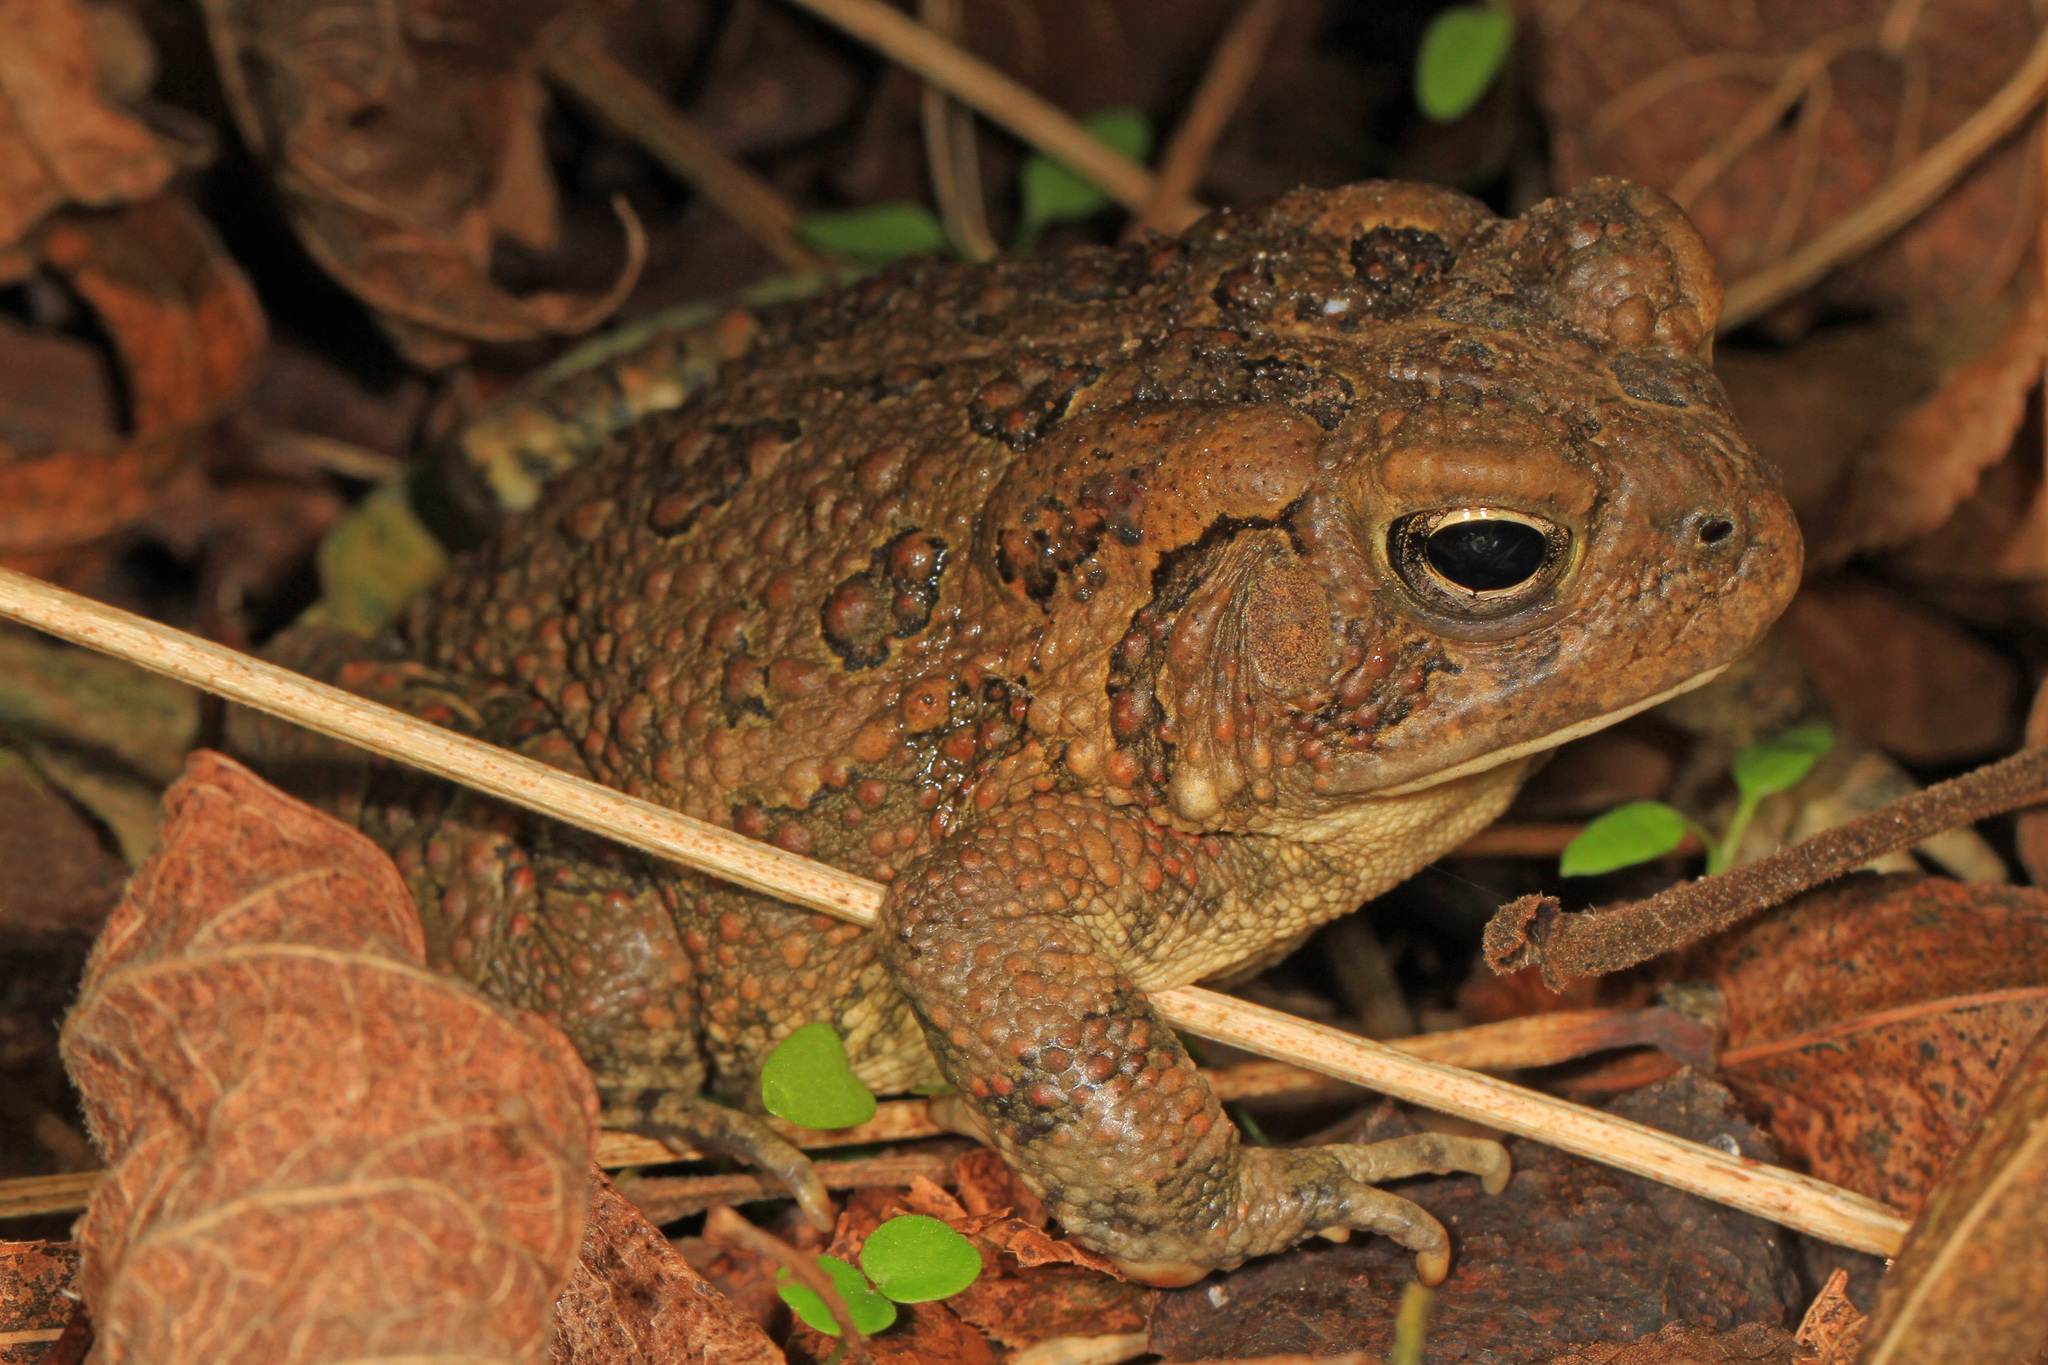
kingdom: Animalia
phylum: Chordata
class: Amphibia
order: Anura
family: Bufonidae
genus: Anaxyrus
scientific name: Anaxyrus fowleri
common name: Fowler's toad
